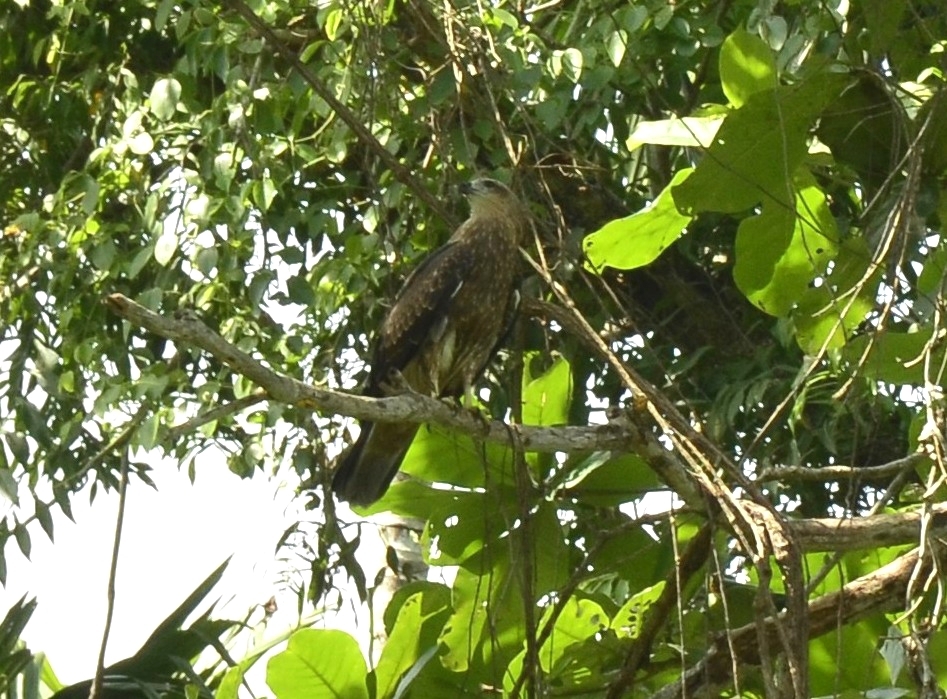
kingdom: Animalia
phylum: Chordata
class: Aves
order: Accipitriformes
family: Accipitridae
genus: Milvus
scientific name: Milvus migrans
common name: Black kite
